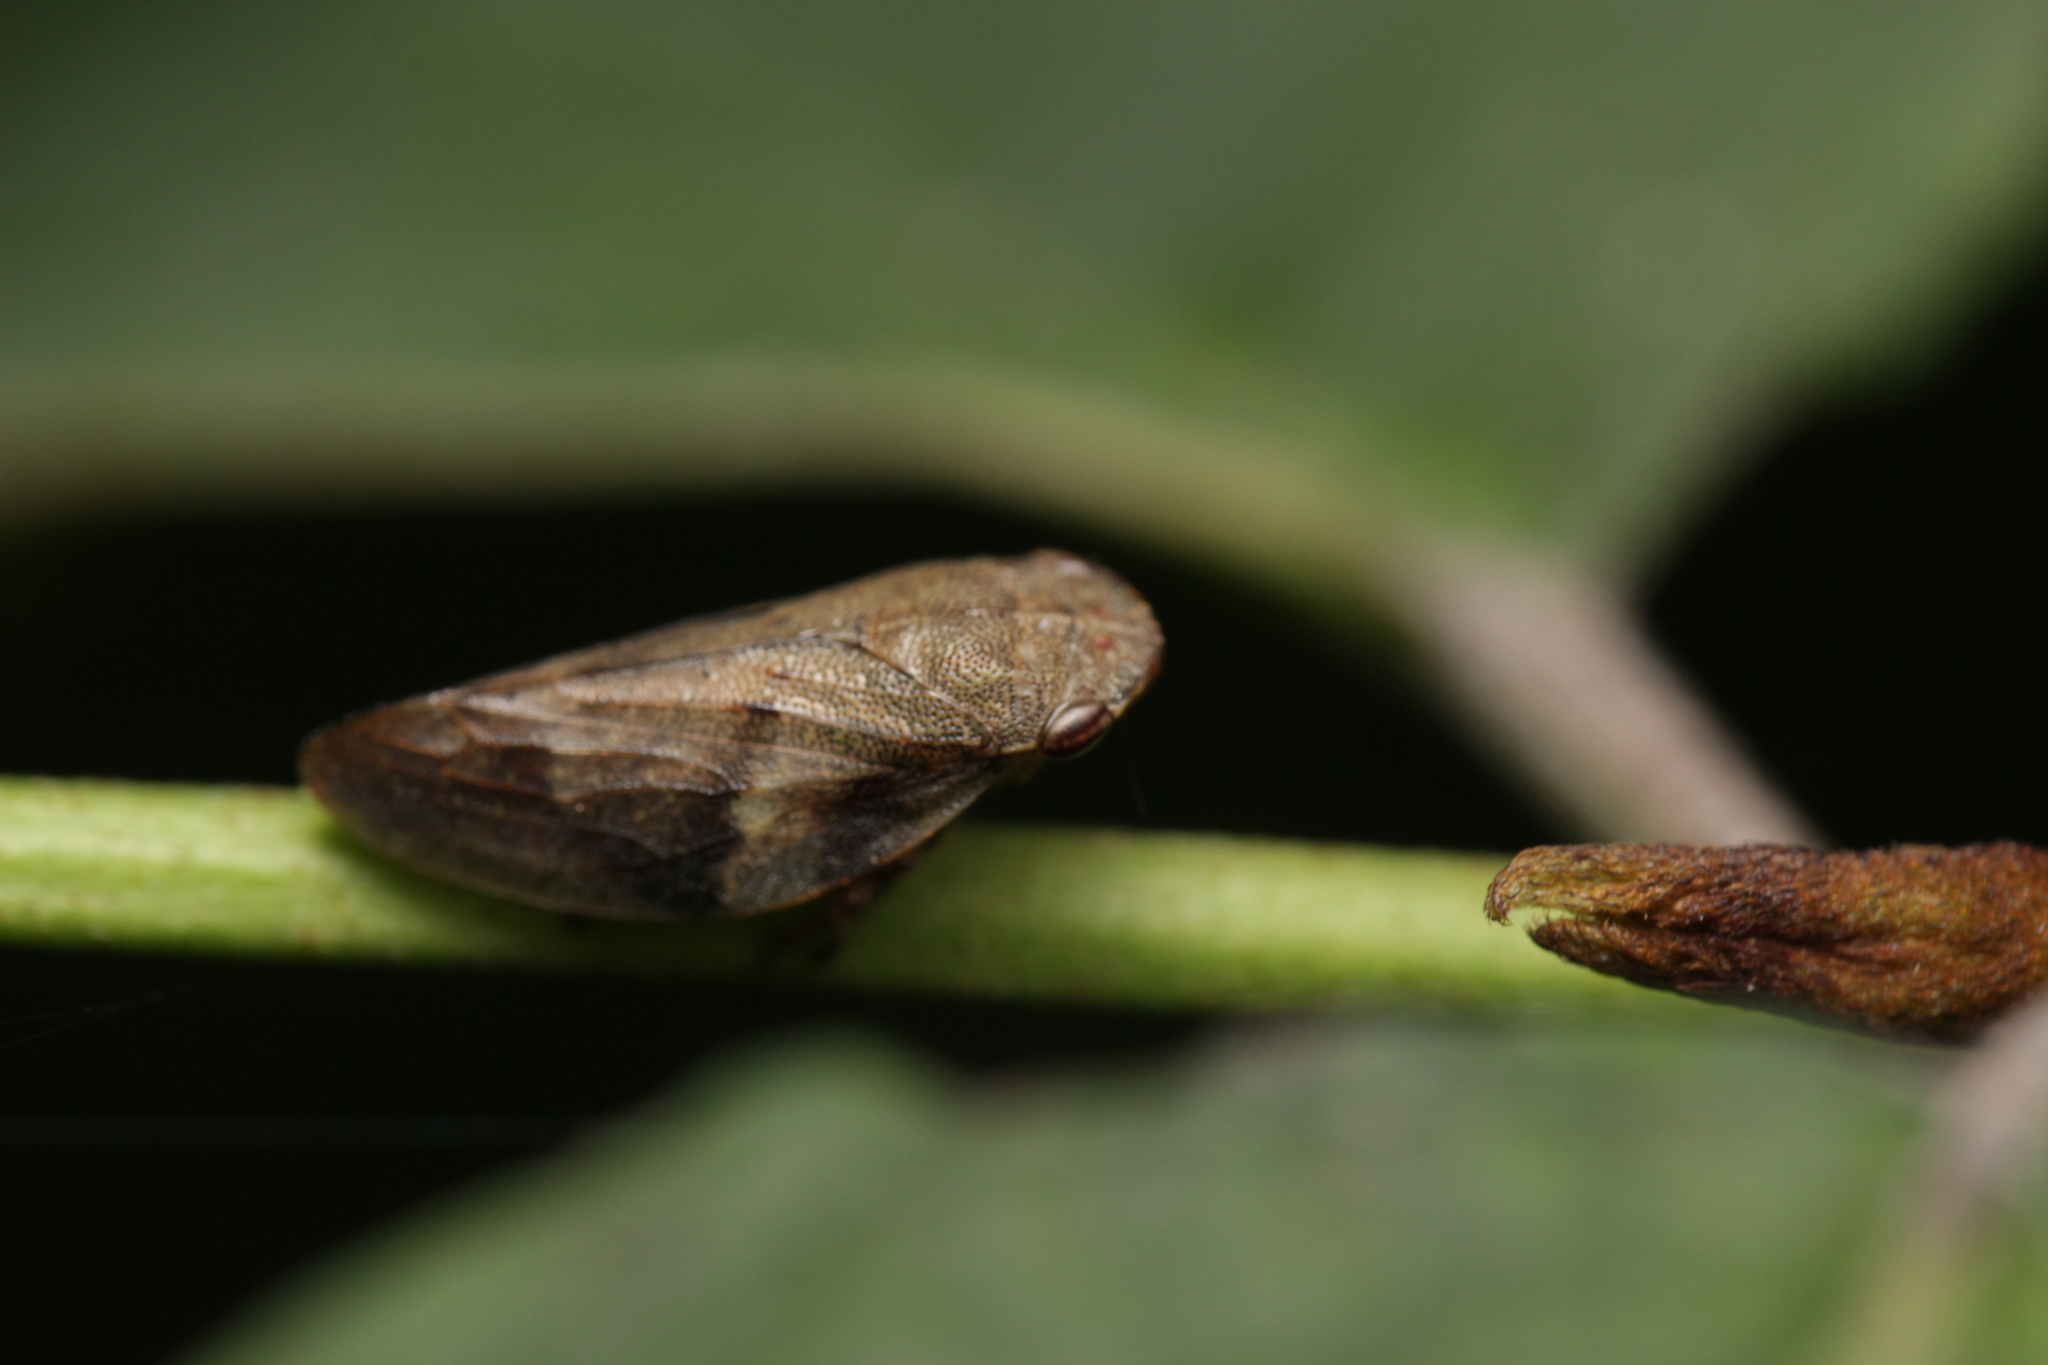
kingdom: Animalia
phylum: Arthropoda
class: Insecta
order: Hemiptera
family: Aphrophoridae
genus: Aphrophora
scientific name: Aphrophora alni
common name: European alder spittlebug
